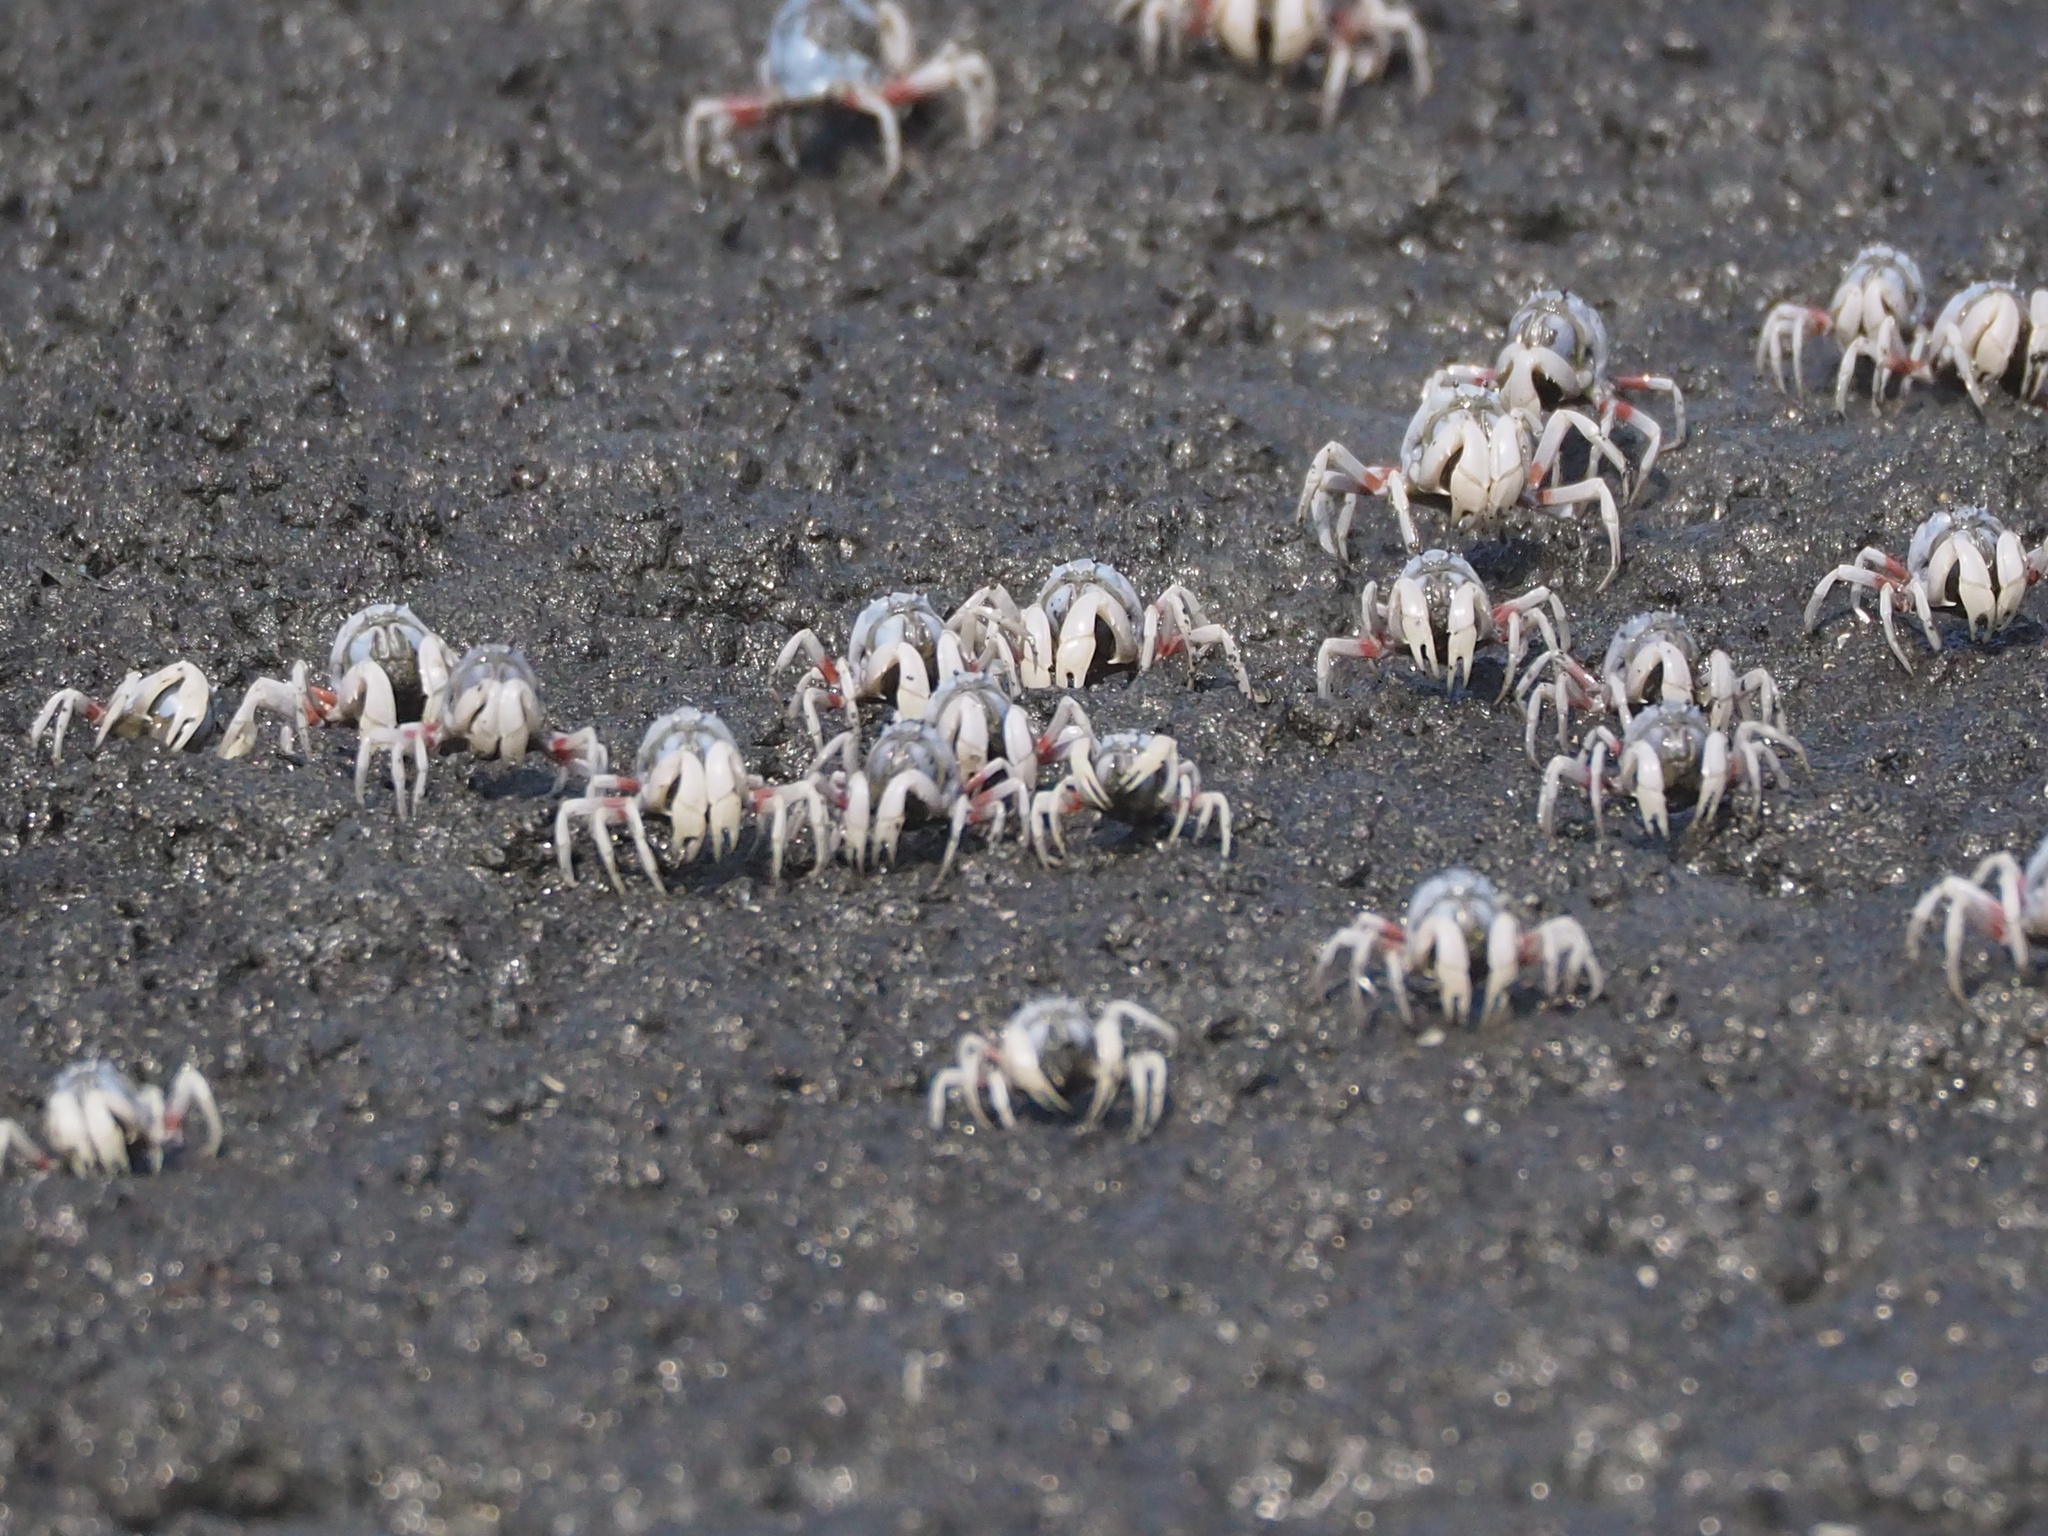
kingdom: Animalia
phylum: Arthropoda
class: Malacostraca
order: Decapoda
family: Mictyridae
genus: Mictyris
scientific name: Mictyris brevidactylus
